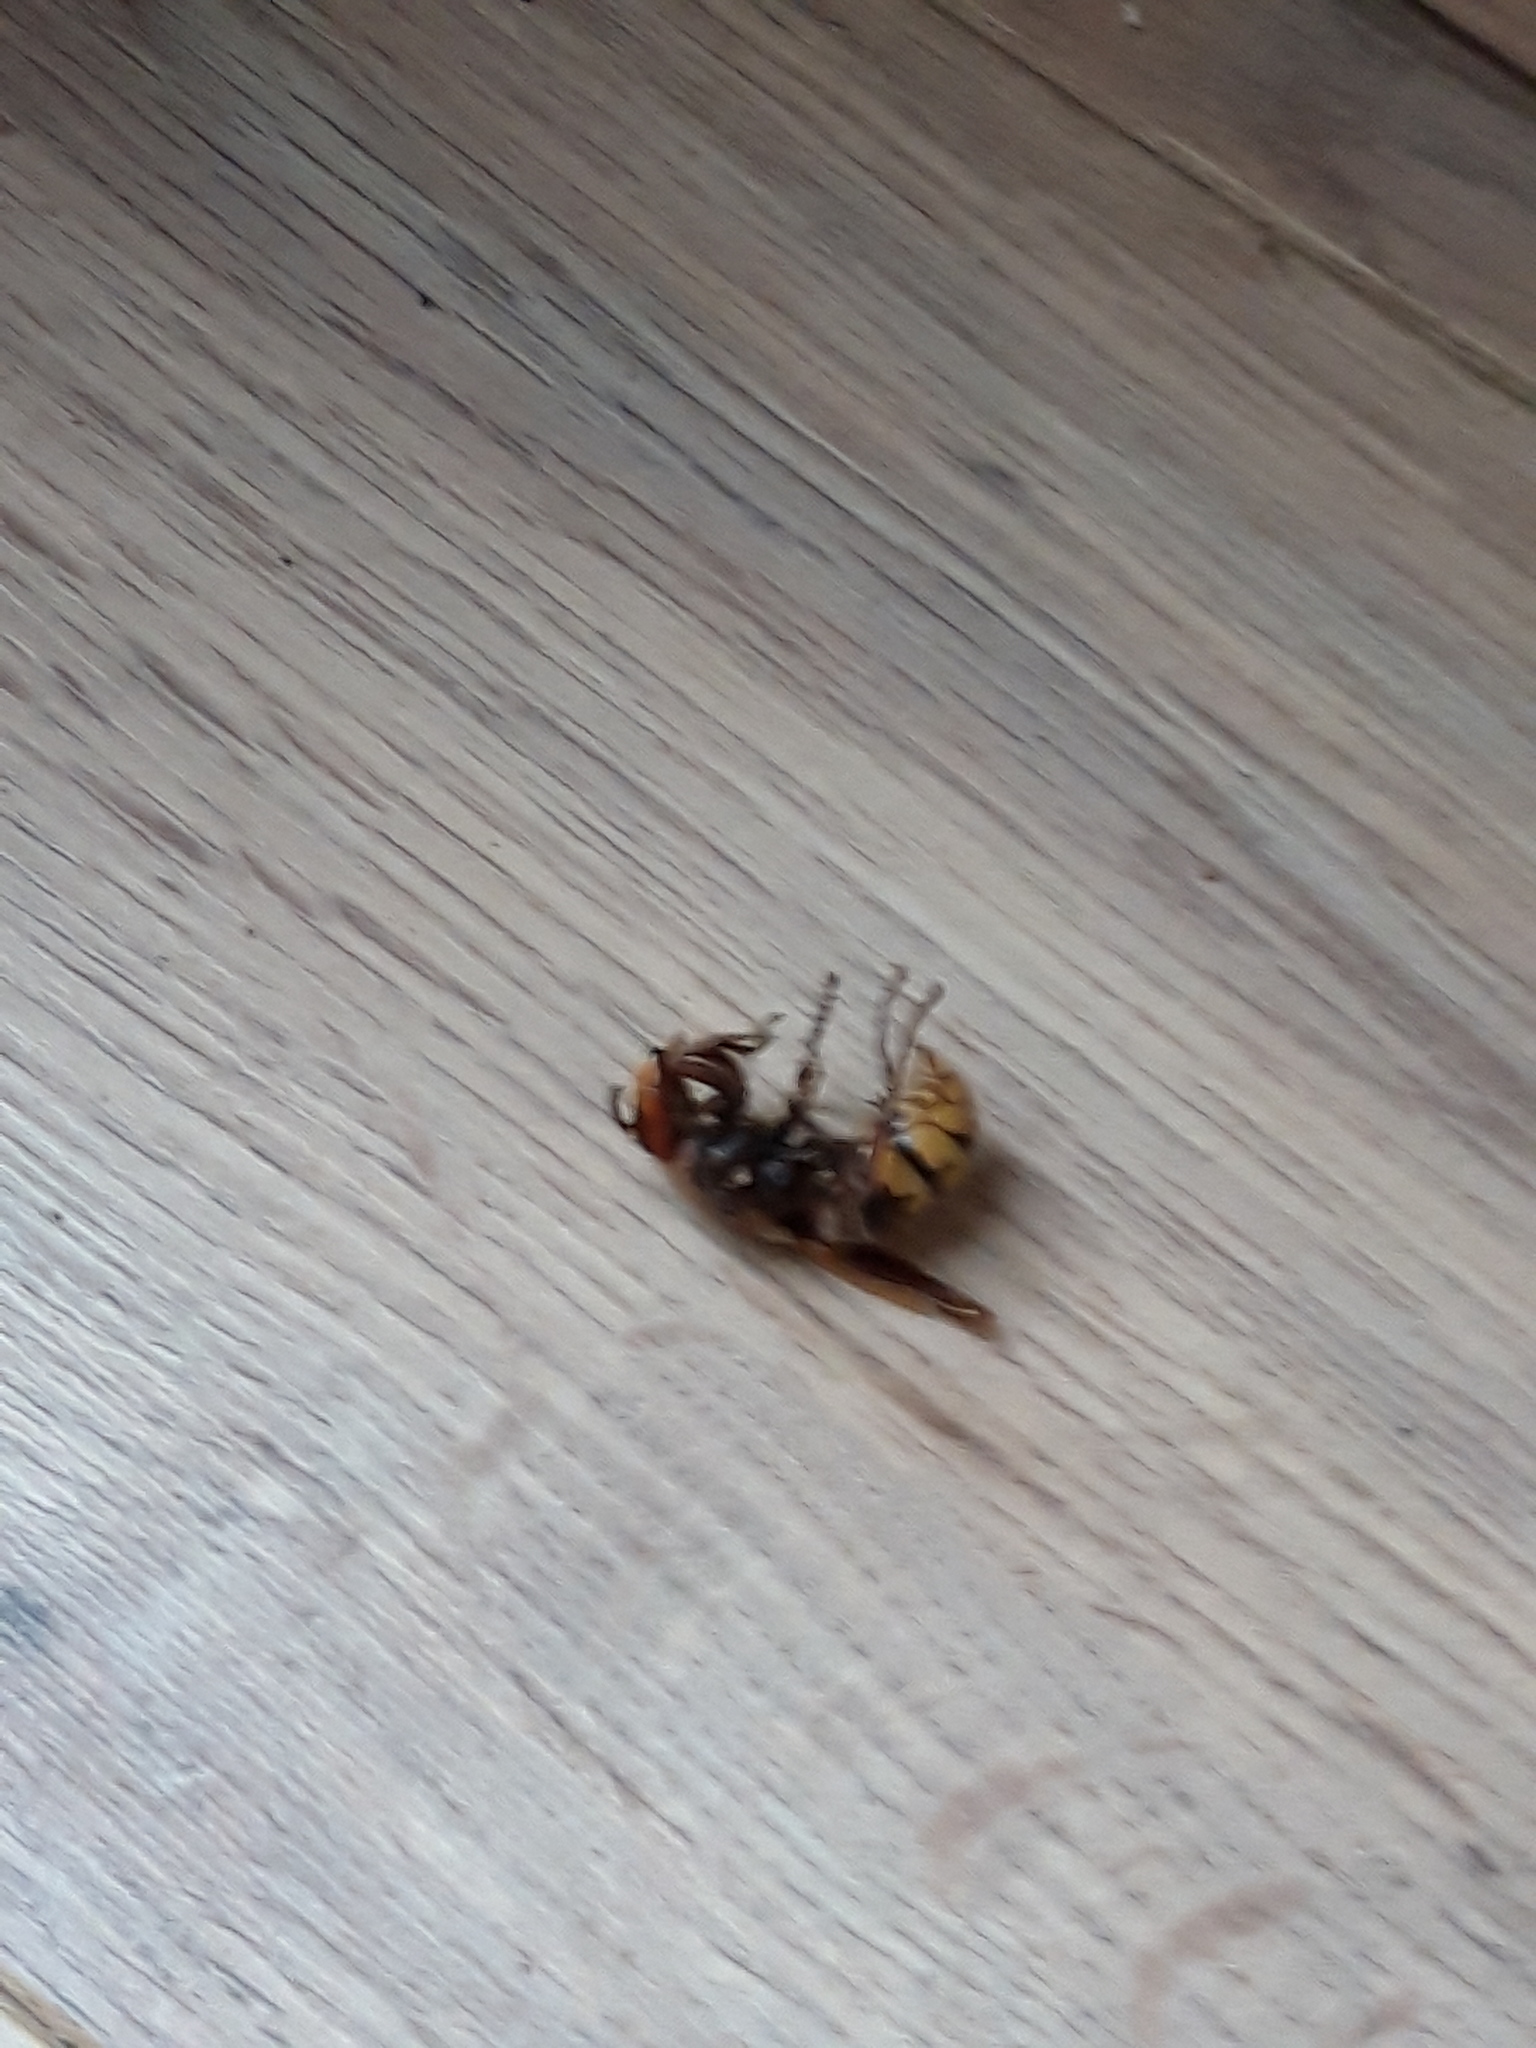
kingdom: Animalia
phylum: Arthropoda
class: Insecta
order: Hymenoptera
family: Vespidae
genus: Vespa
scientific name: Vespa crabro
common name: Hornet
